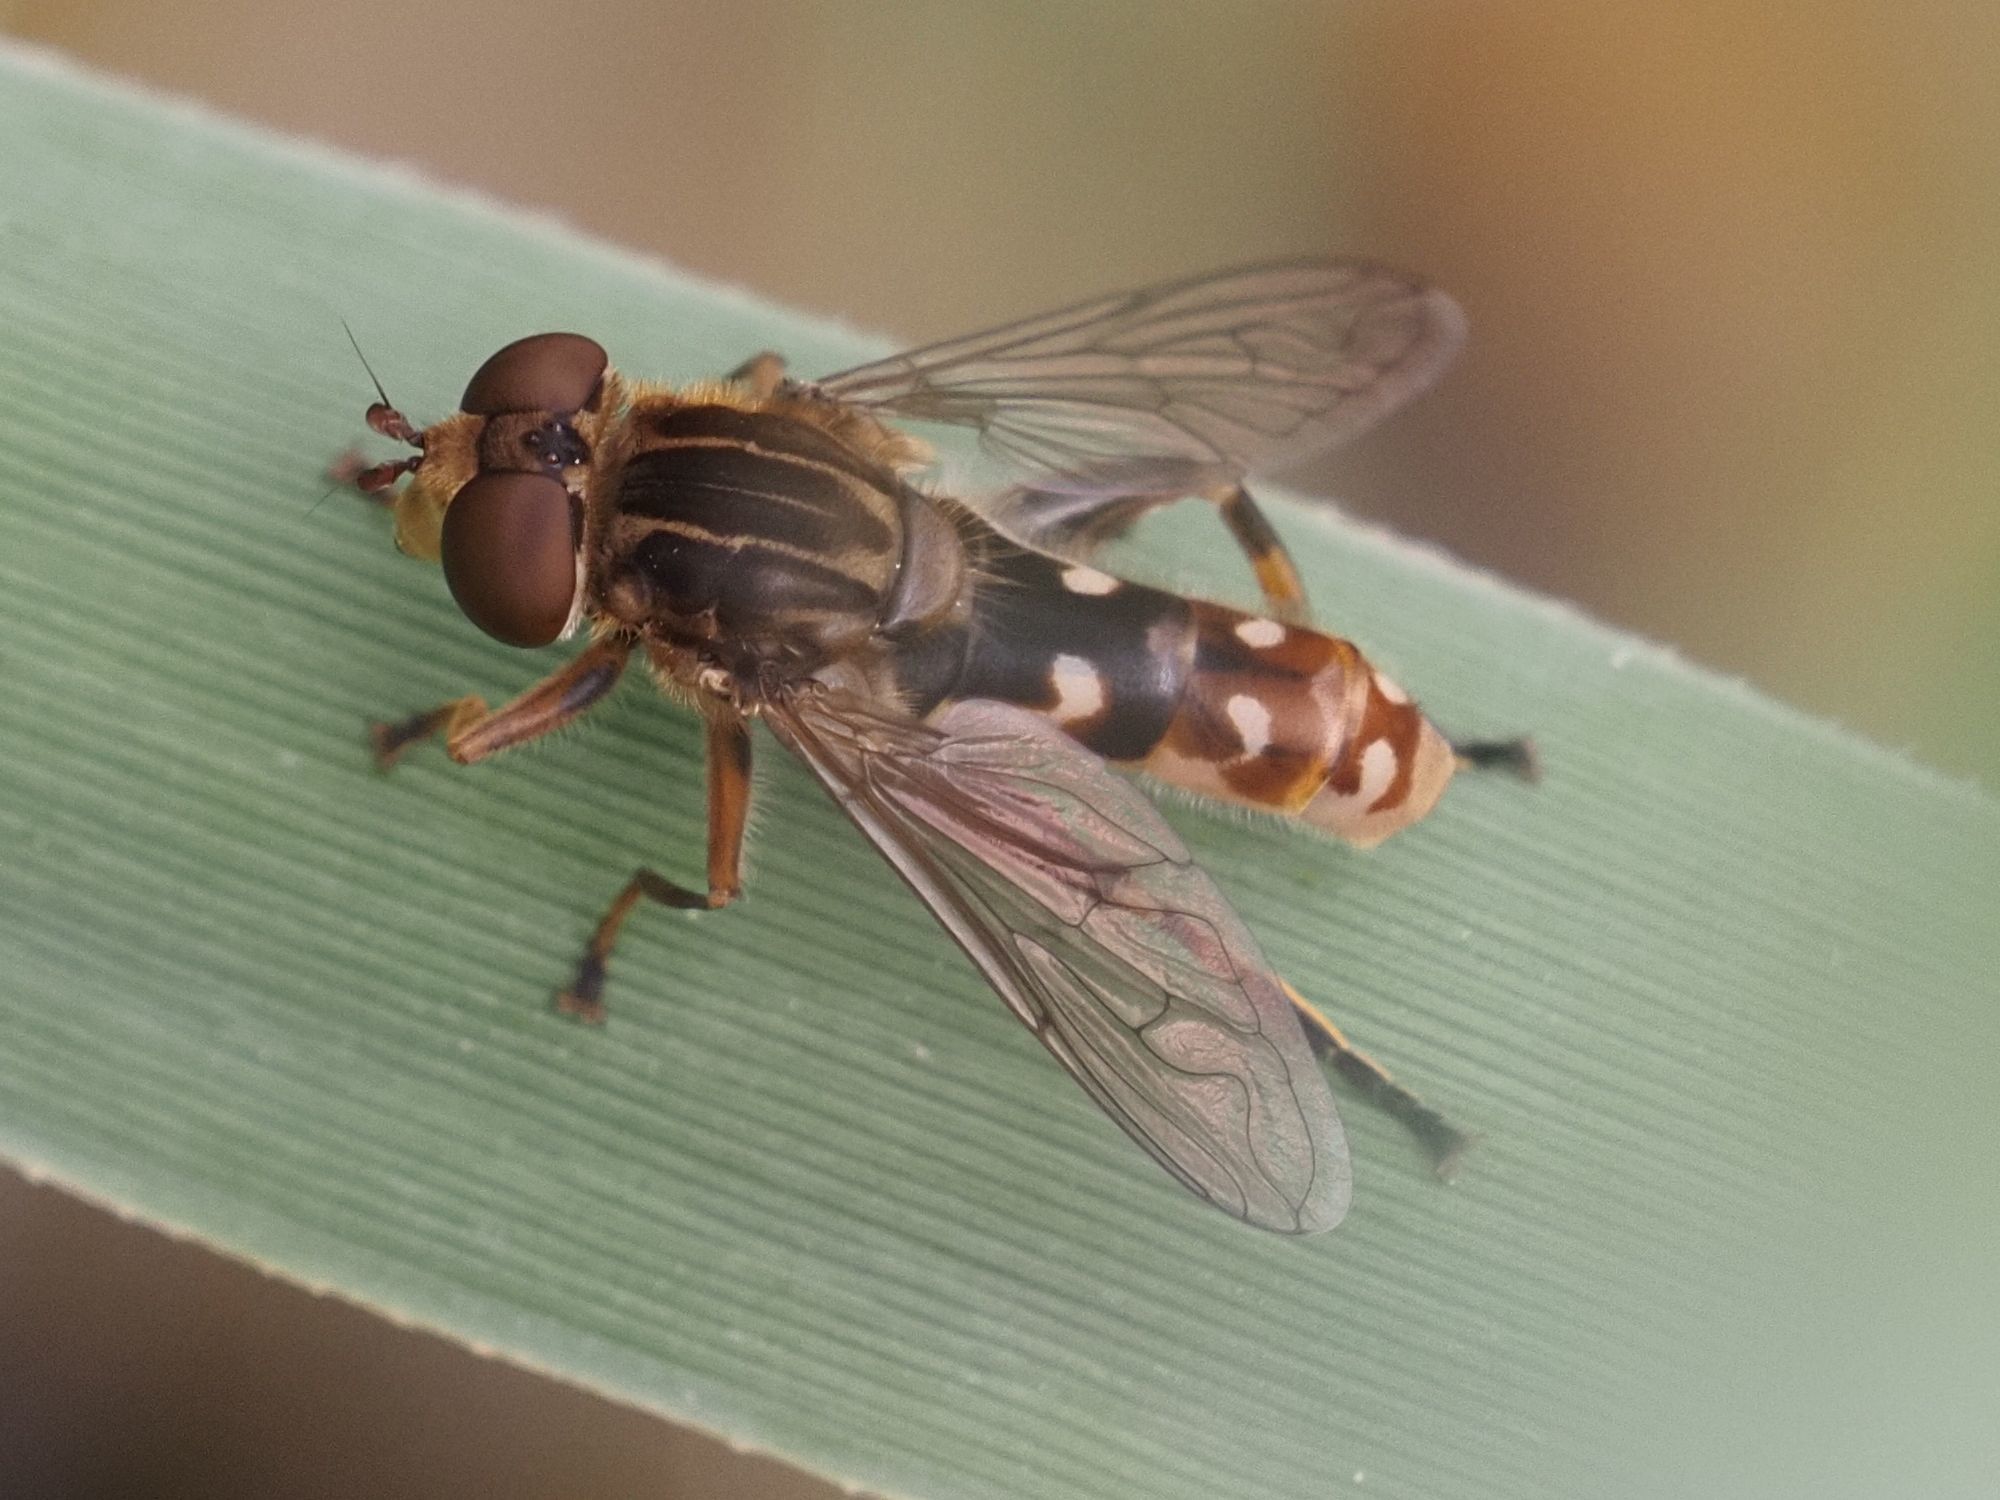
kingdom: Animalia
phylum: Arthropoda
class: Insecta
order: Diptera
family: Syrphidae
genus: Anasimyia
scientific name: Anasimyia contracta
